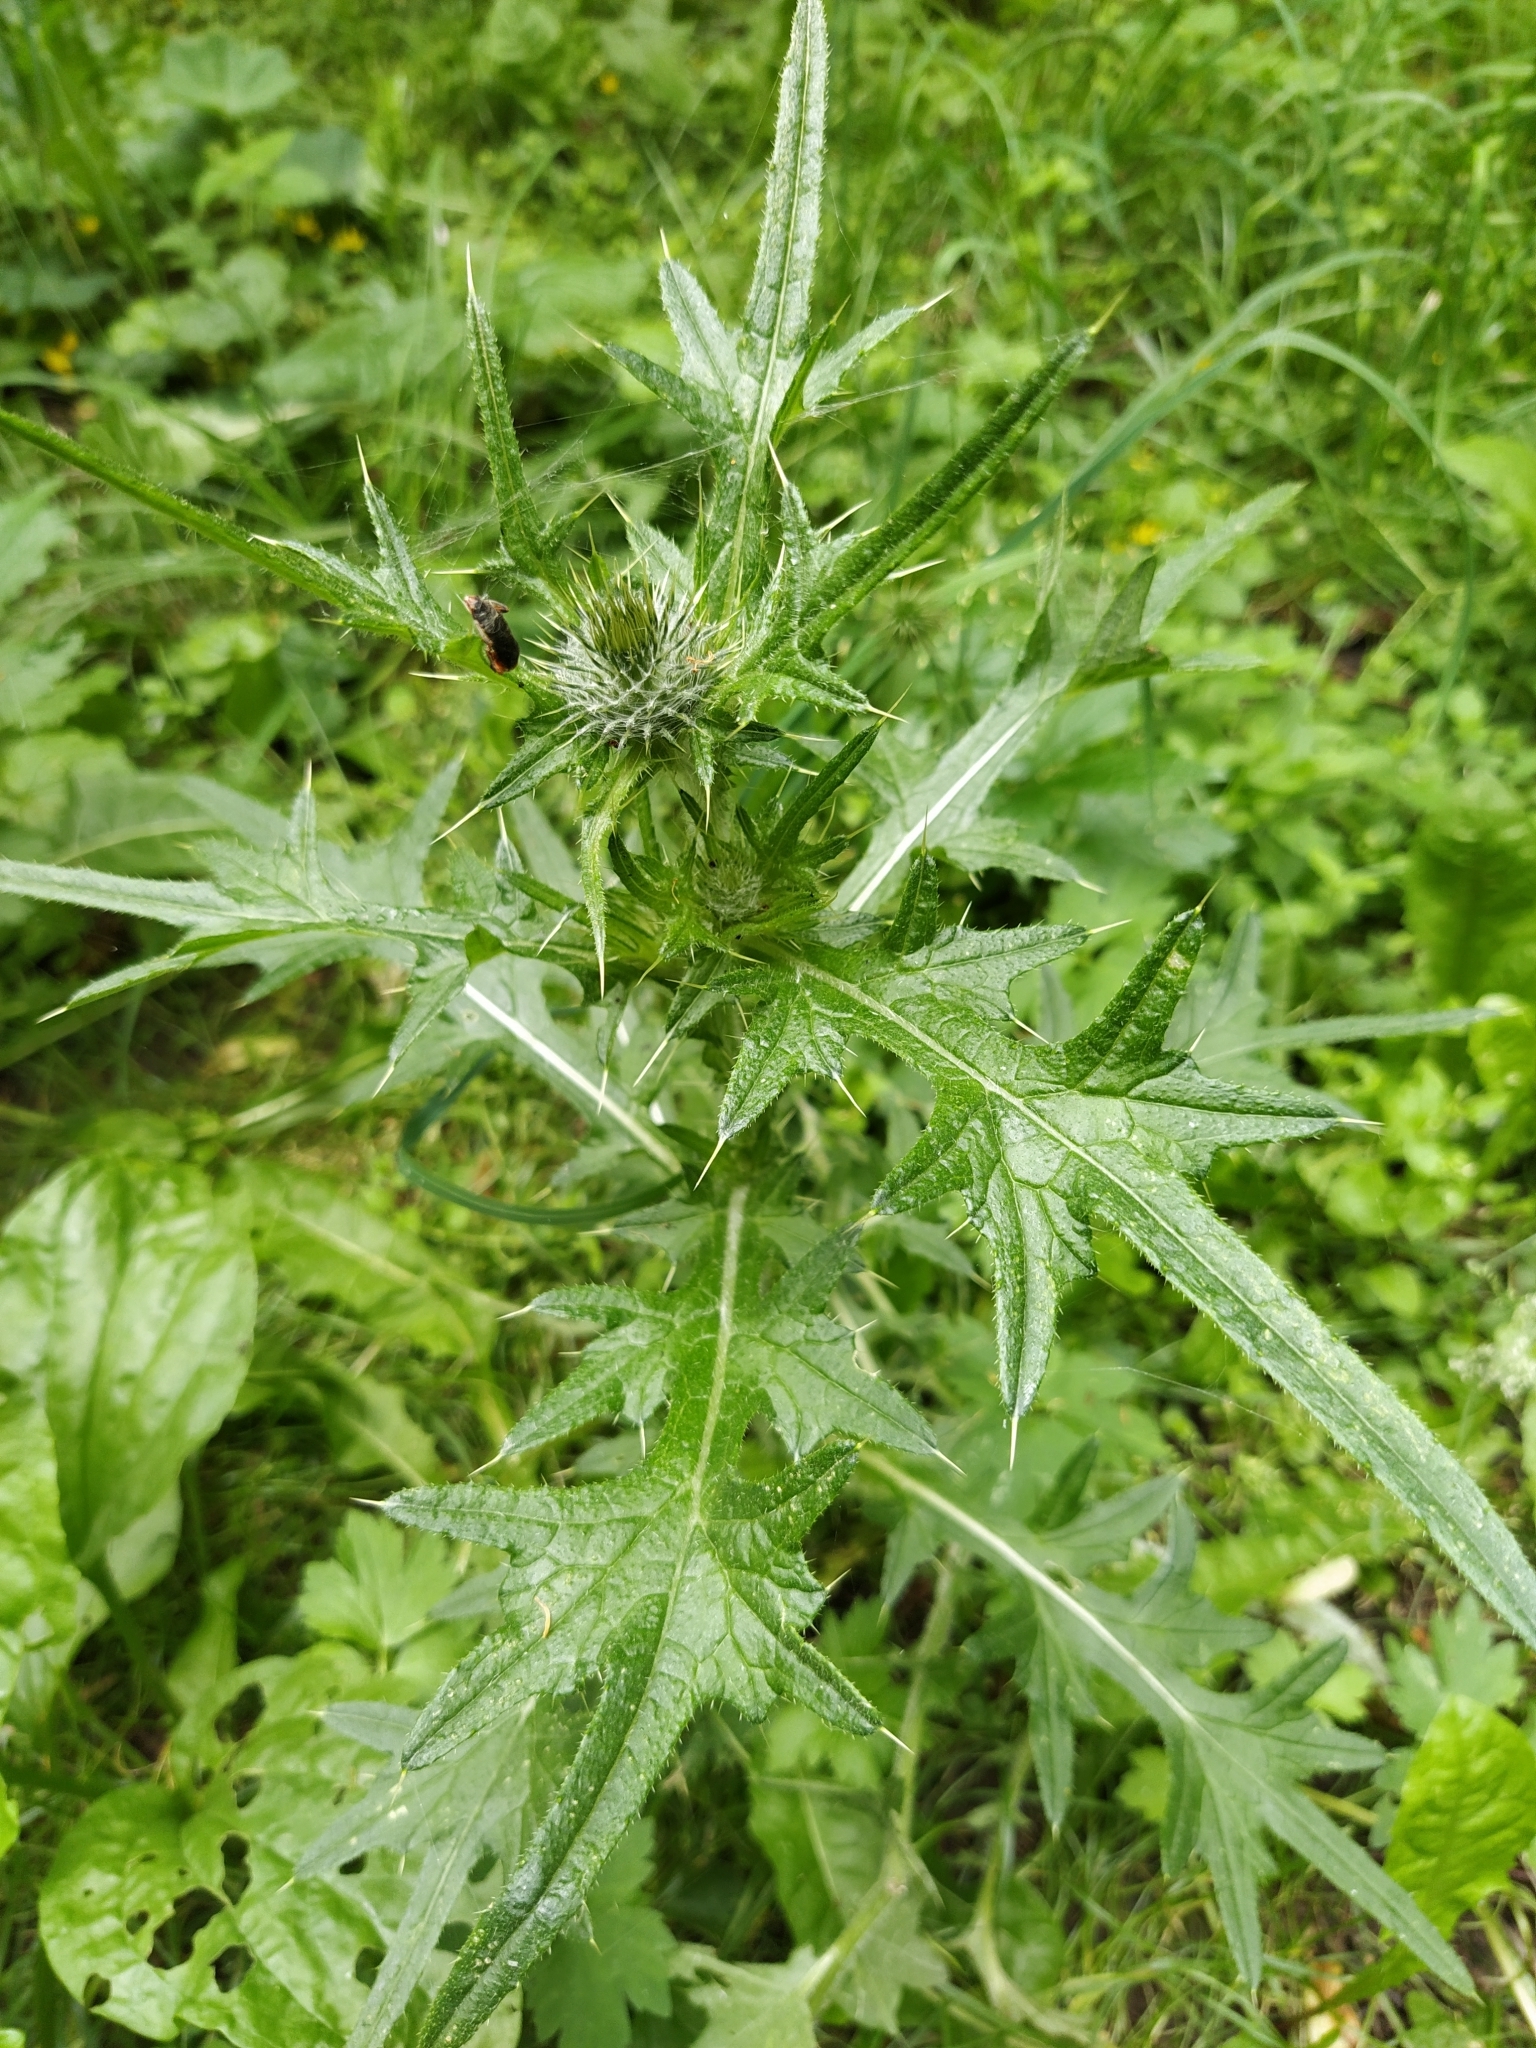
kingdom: Plantae
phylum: Tracheophyta
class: Magnoliopsida
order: Asterales
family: Asteraceae
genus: Cirsium
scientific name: Cirsium vulgare
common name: Bull thistle
